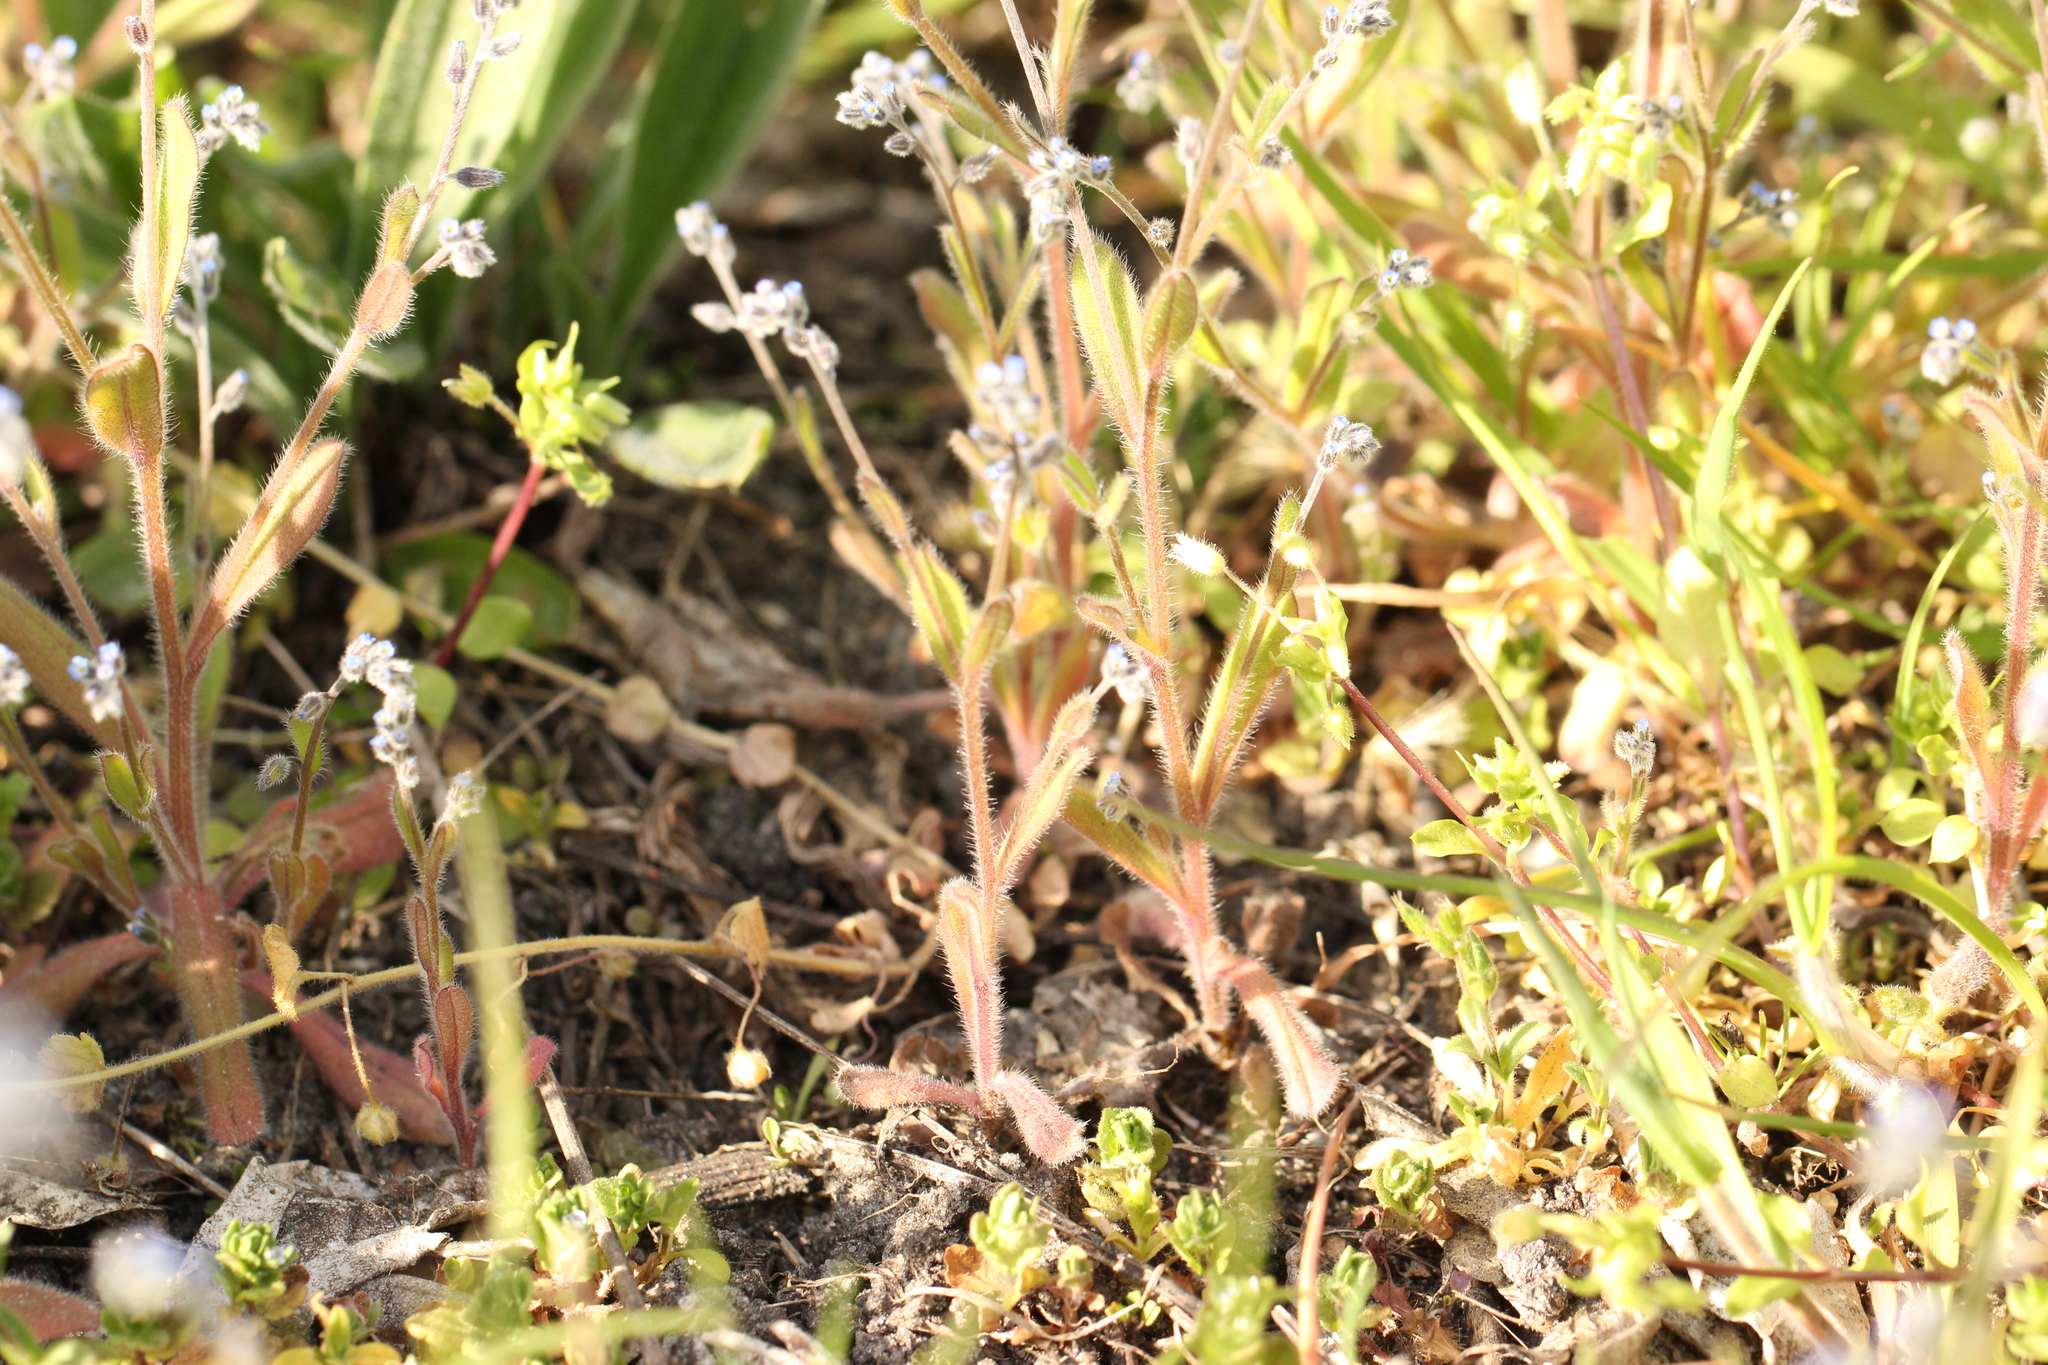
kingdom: Plantae
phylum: Tracheophyta
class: Magnoliopsida
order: Boraginales
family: Boraginaceae
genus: Myosotis
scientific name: Myosotis ramosissima
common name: Early forget-me-not
